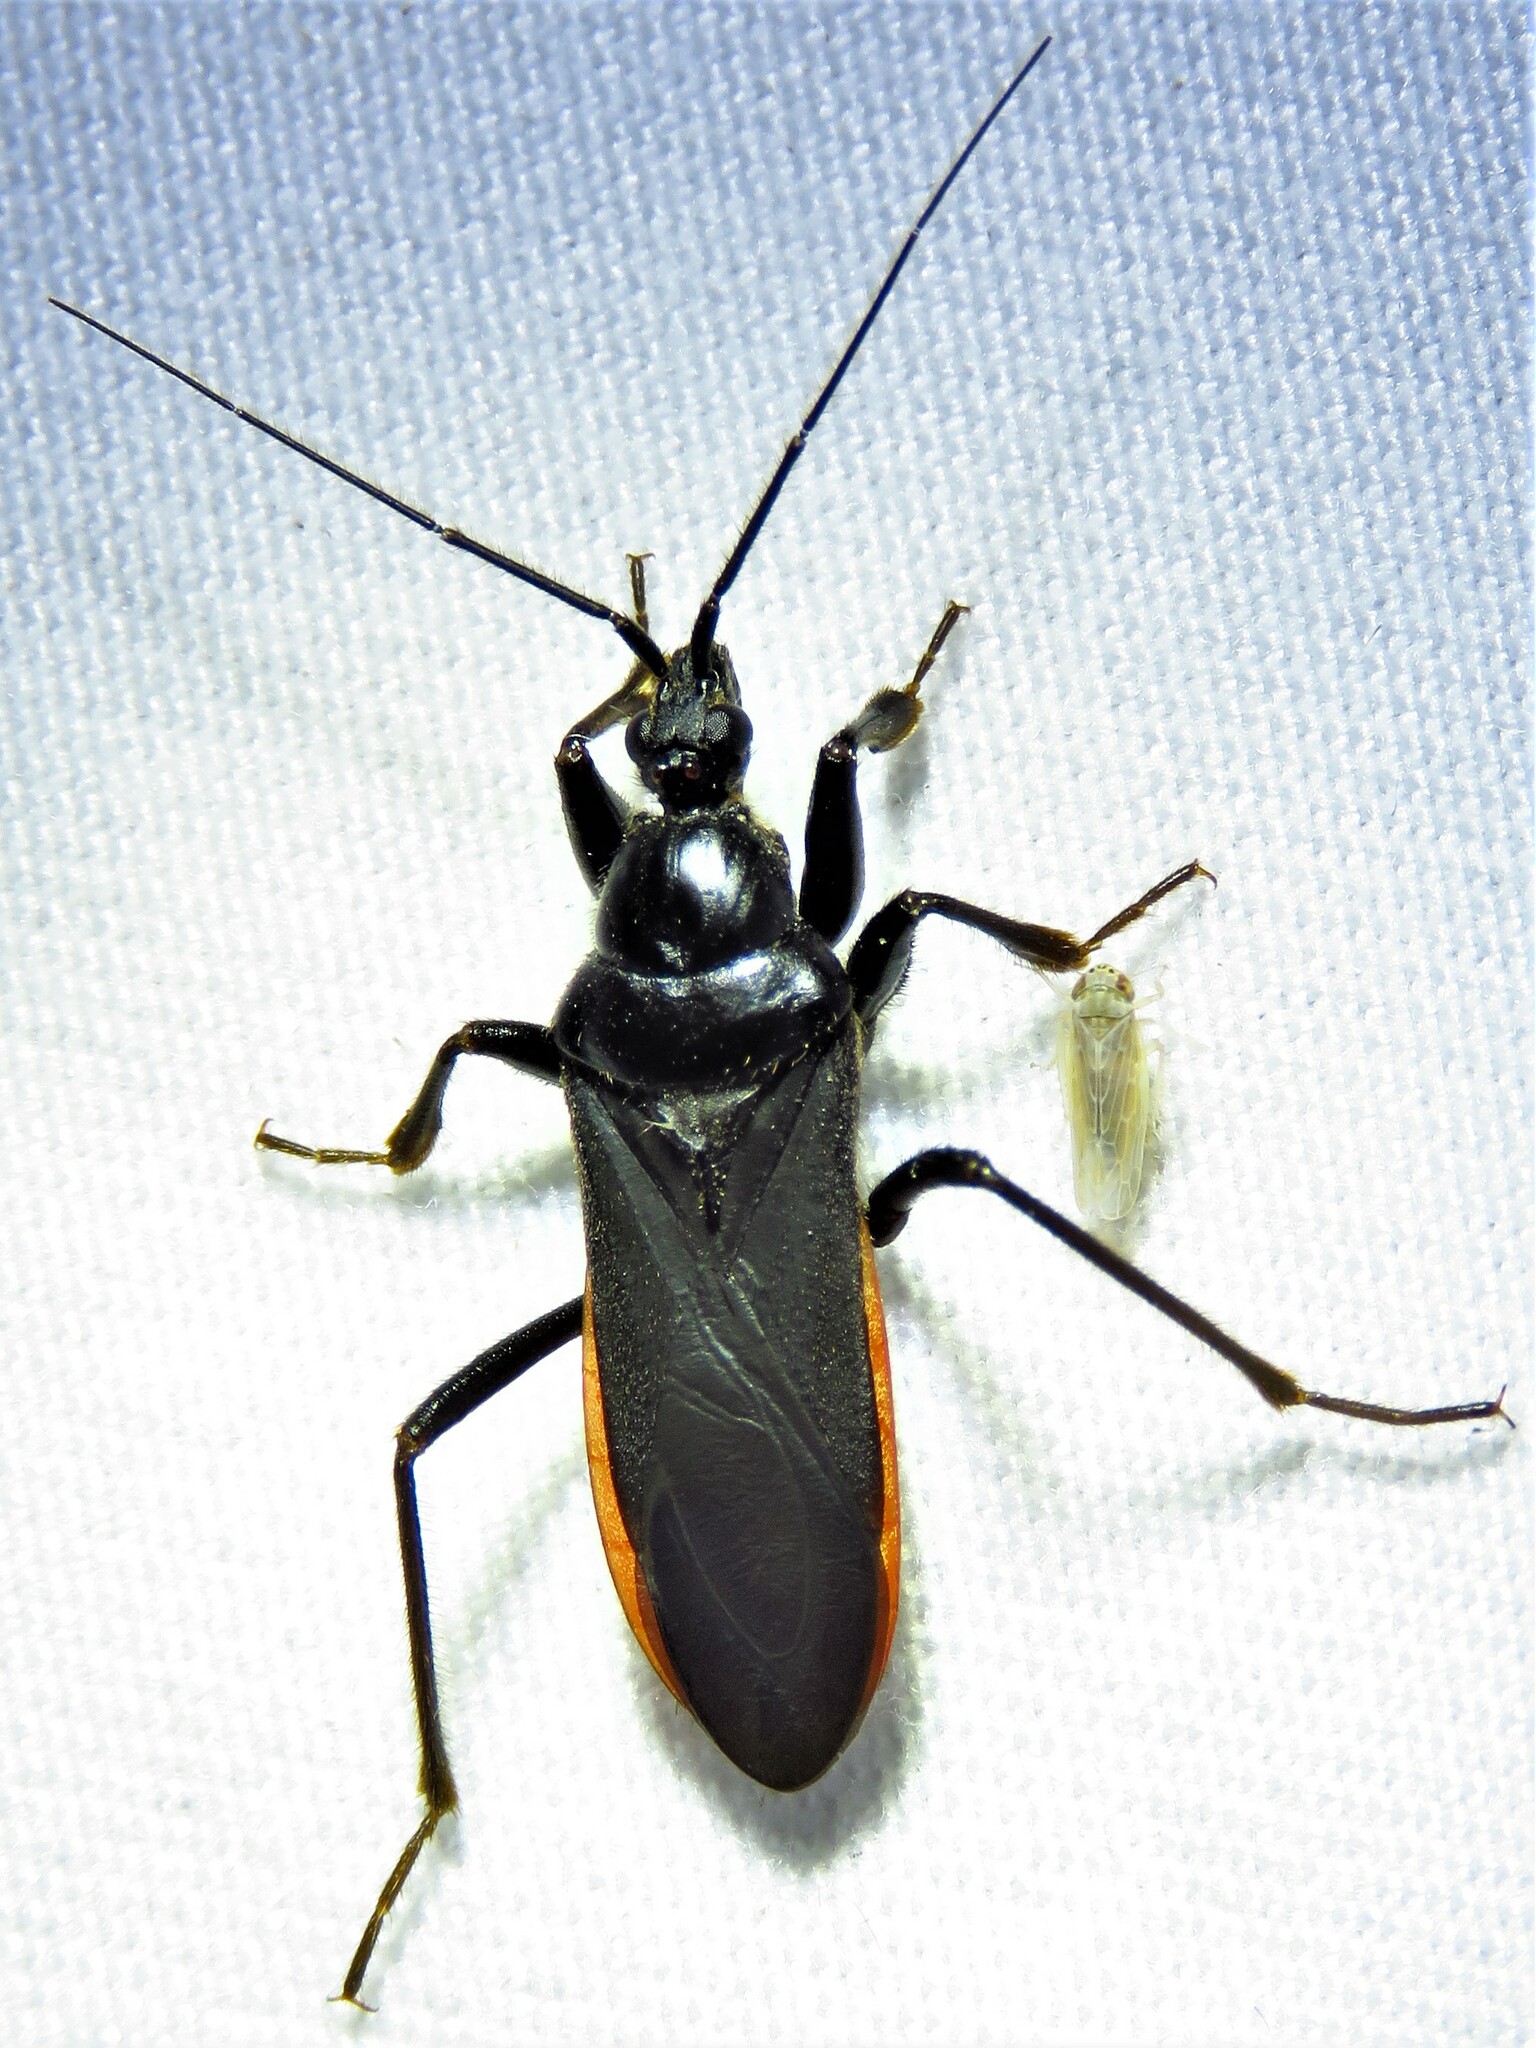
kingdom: Animalia
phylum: Arthropoda
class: Insecta
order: Hemiptera
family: Reduviidae
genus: Melanolestes
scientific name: Melanolestes picipes
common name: Assassin bug
